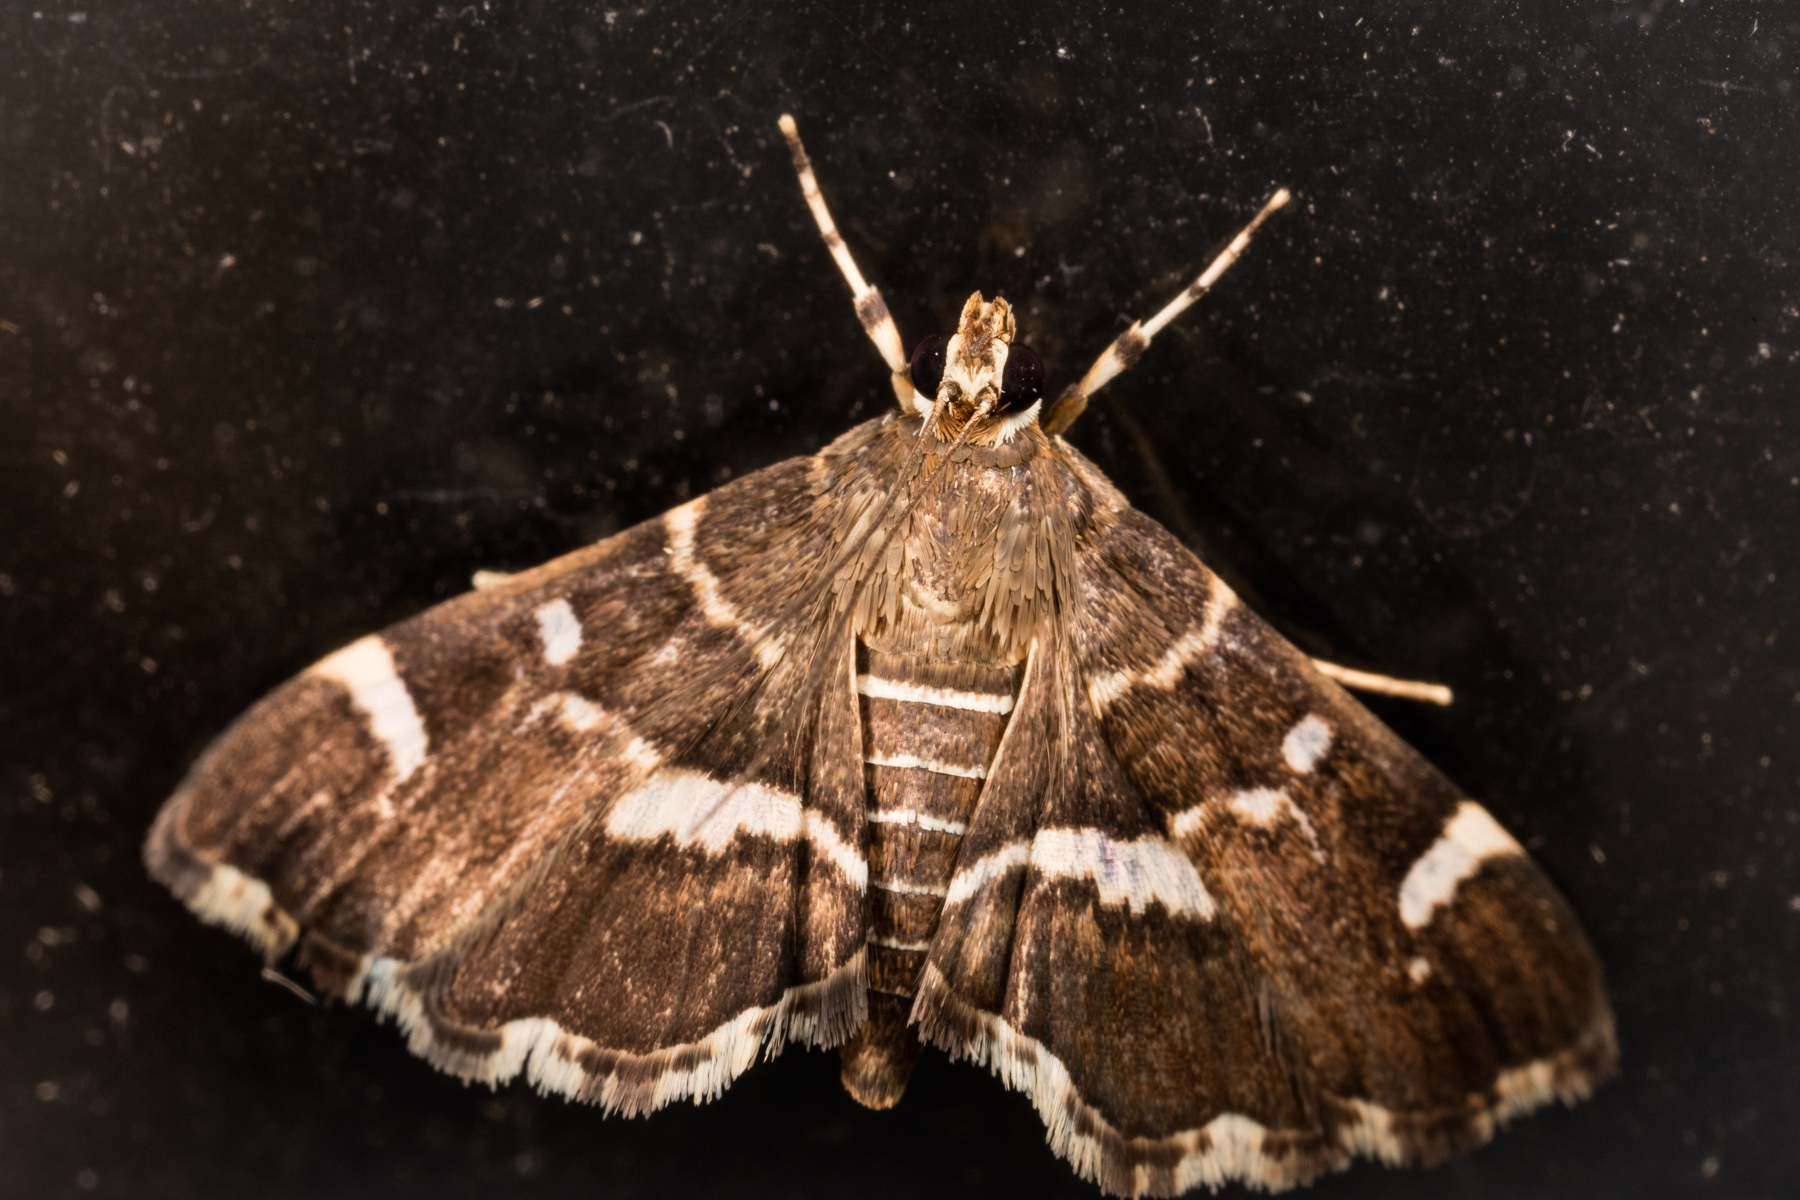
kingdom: Animalia
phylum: Arthropoda
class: Insecta
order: Lepidoptera
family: Crambidae
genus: Hymenia
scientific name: Hymenia perspectalis
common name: Spotted beet webworm
